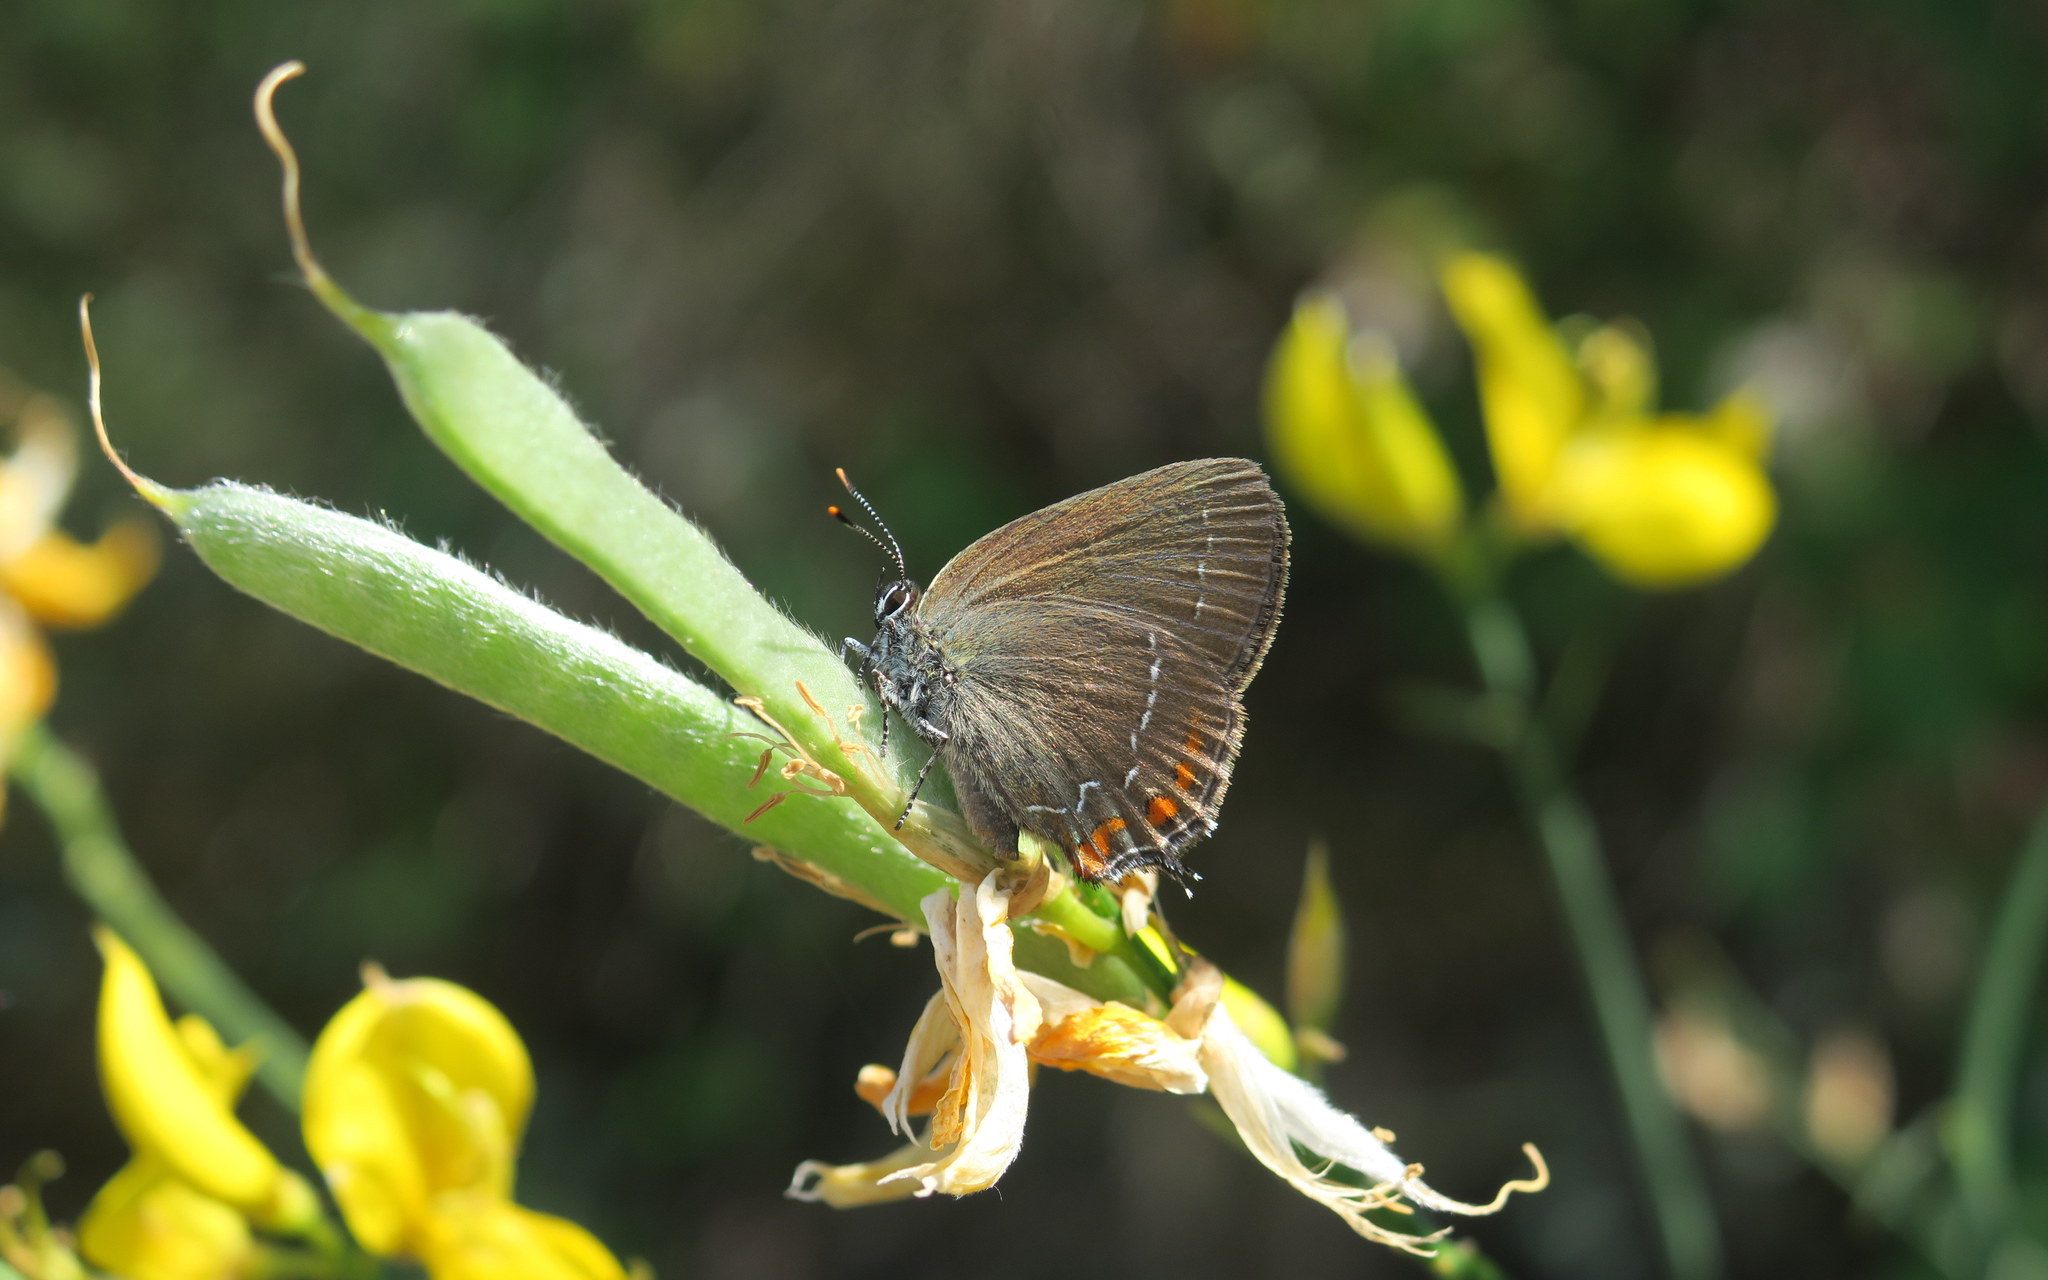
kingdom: Animalia
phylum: Arthropoda
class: Insecta
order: Lepidoptera
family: Lycaenidae
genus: Nordmannia
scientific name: Nordmannia ilicis
